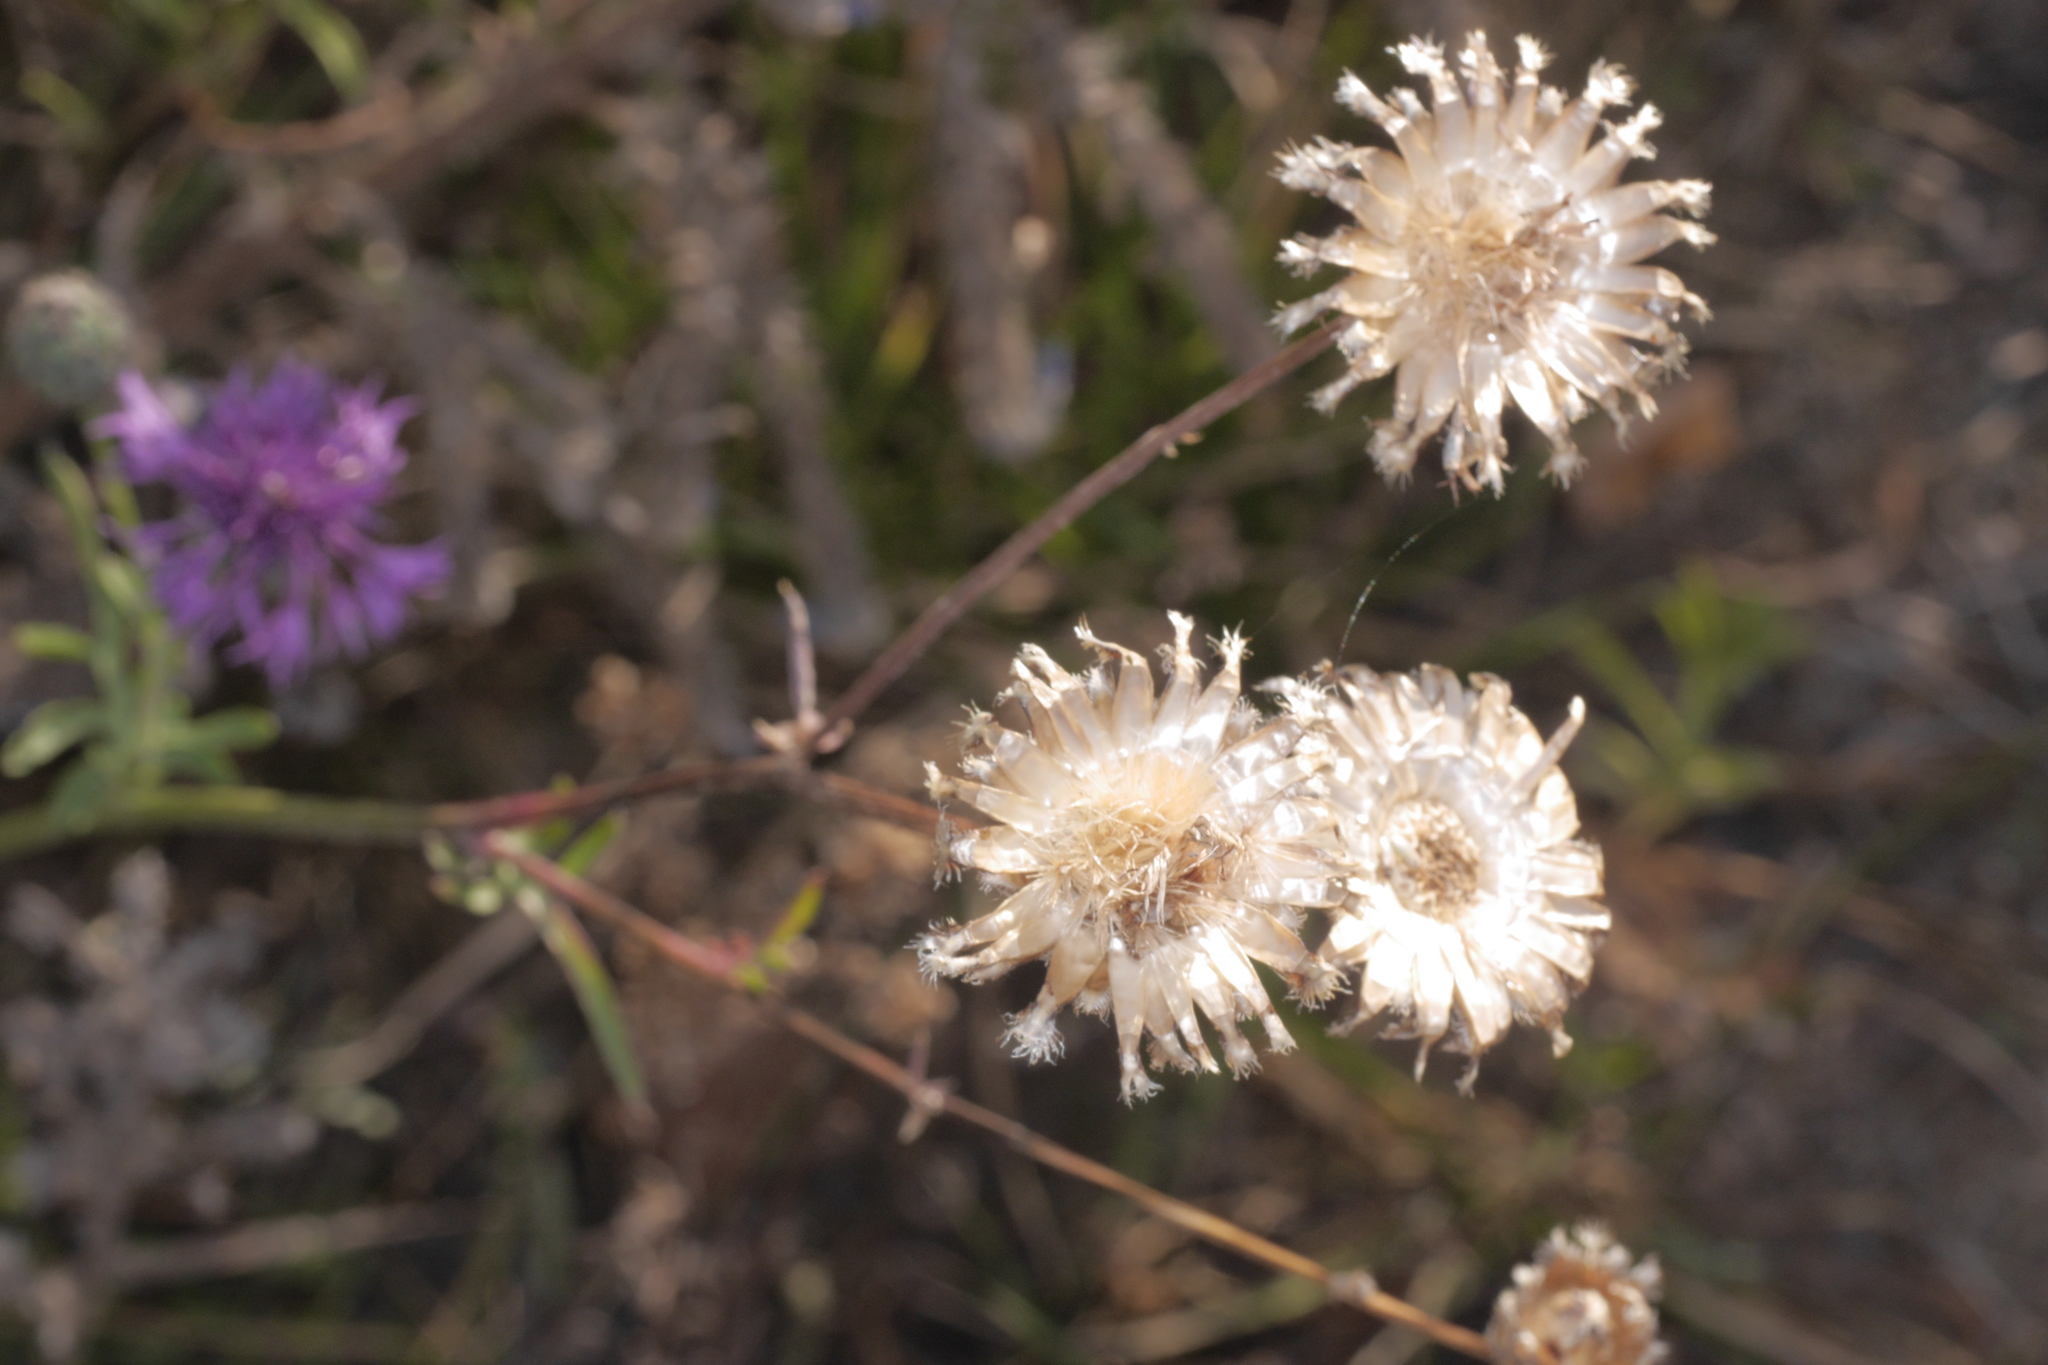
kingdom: Plantae
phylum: Tracheophyta
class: Magnoliopsida
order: Asterales
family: Asteraceae
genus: Centaurea
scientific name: Centaurea scabiosa
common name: Greater knapweed
